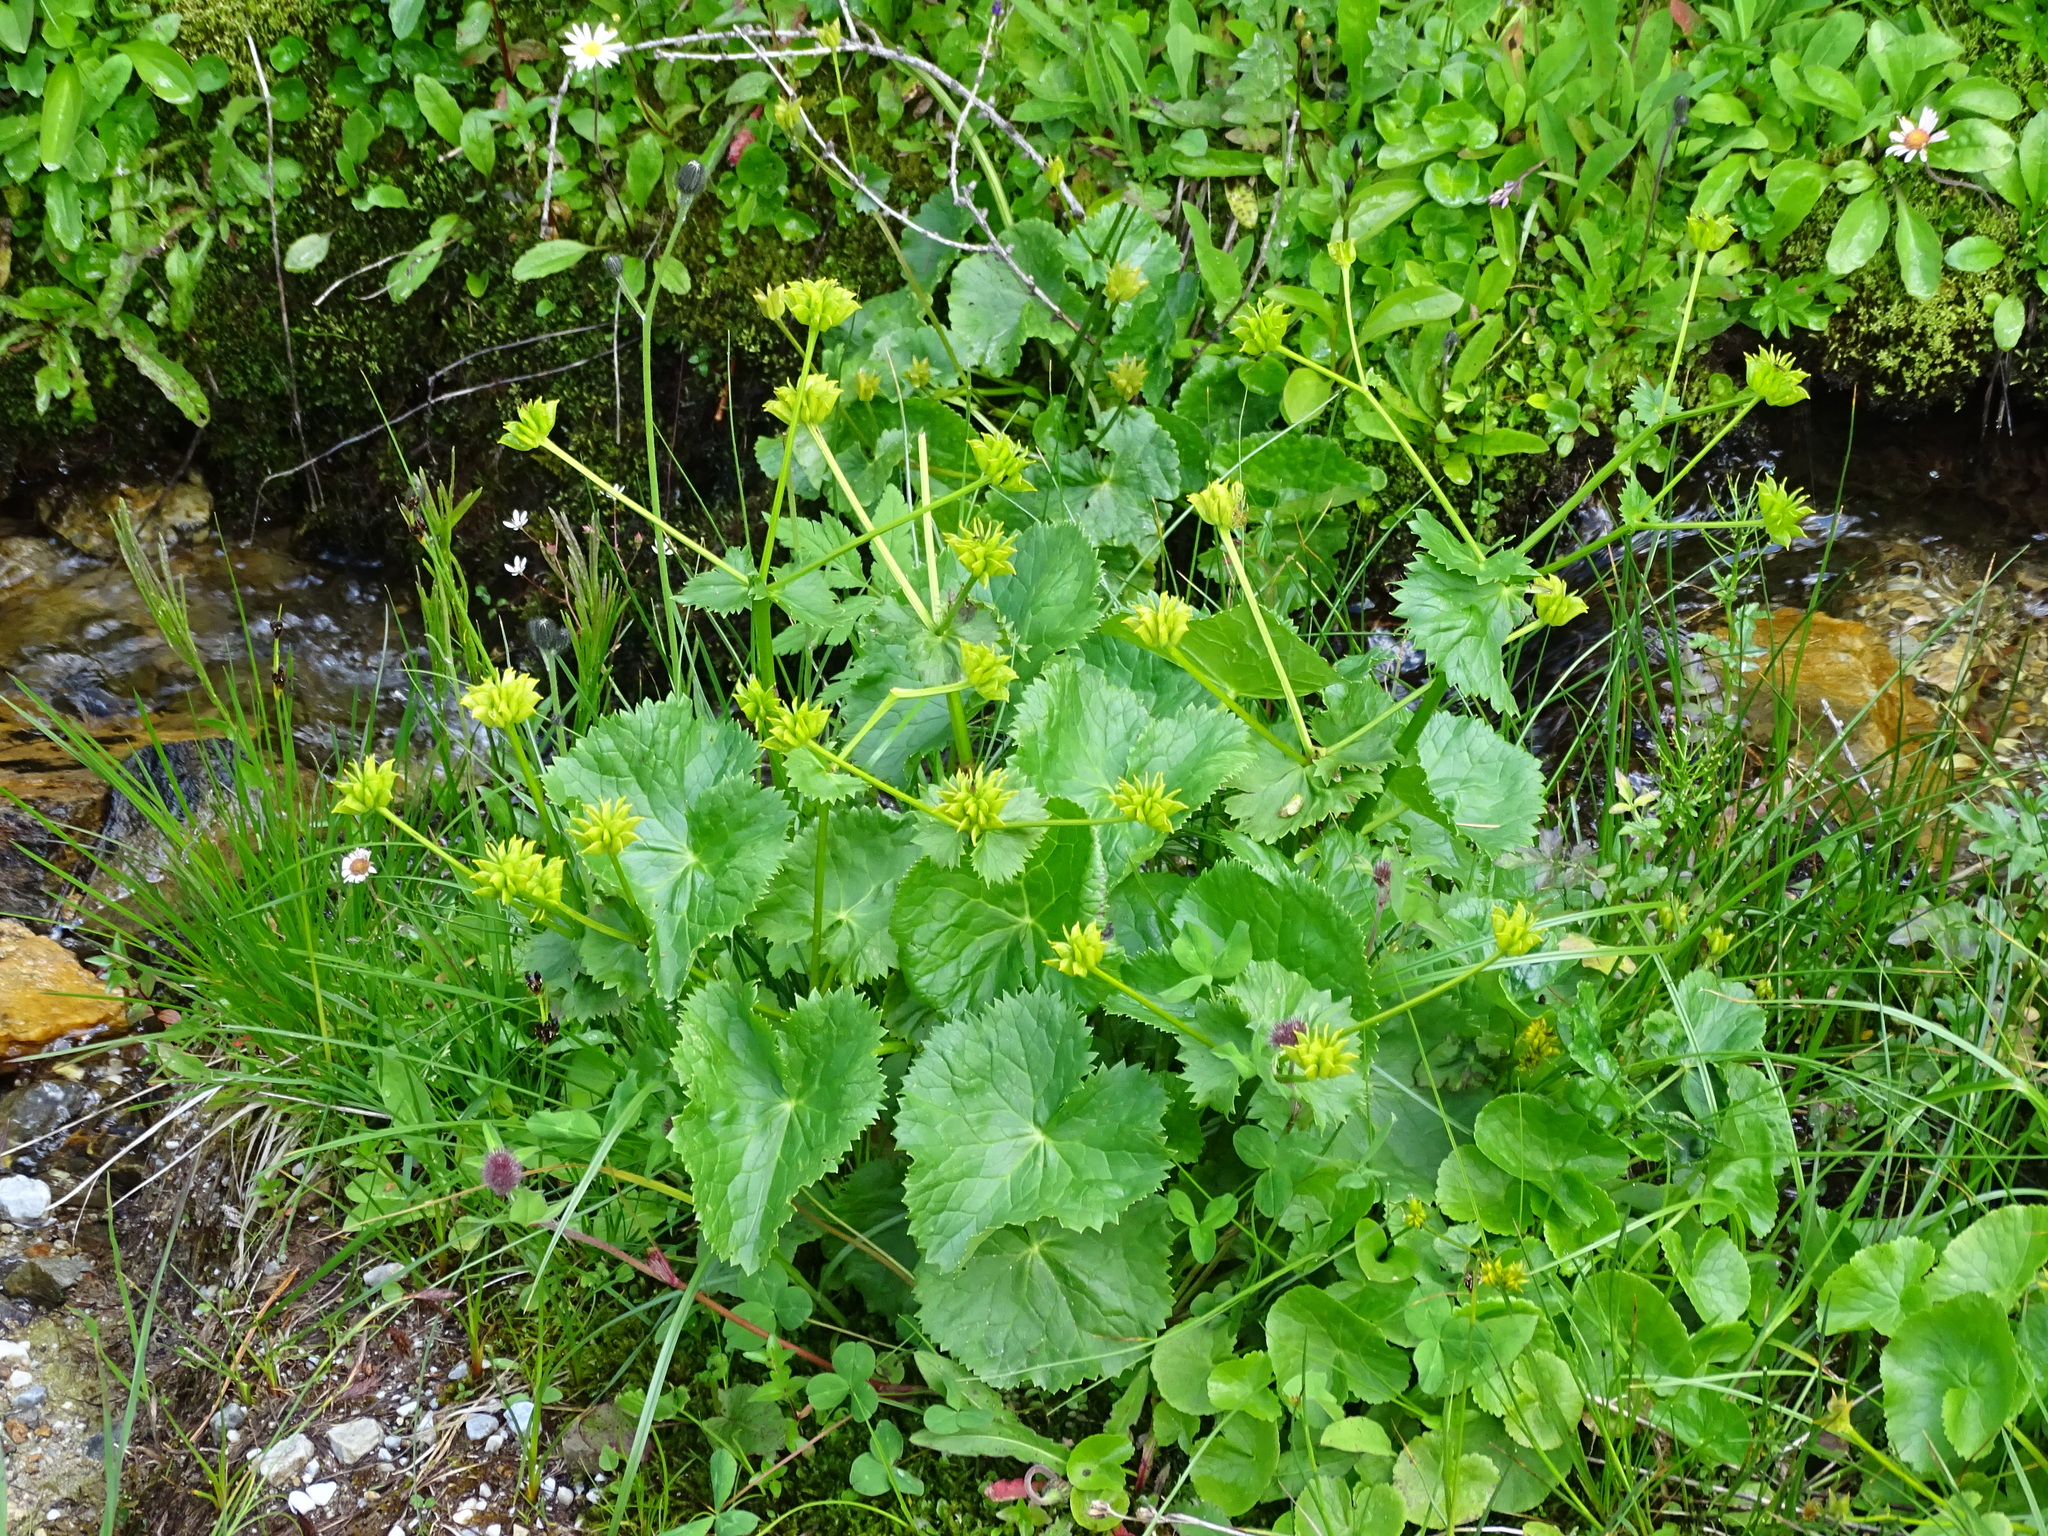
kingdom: Plantae
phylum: Tracheophyta
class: Magnoliopsida
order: Ranunculales
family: Ranunculaceae
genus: Caltha
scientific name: Caltha palustris
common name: Marsh marigold
